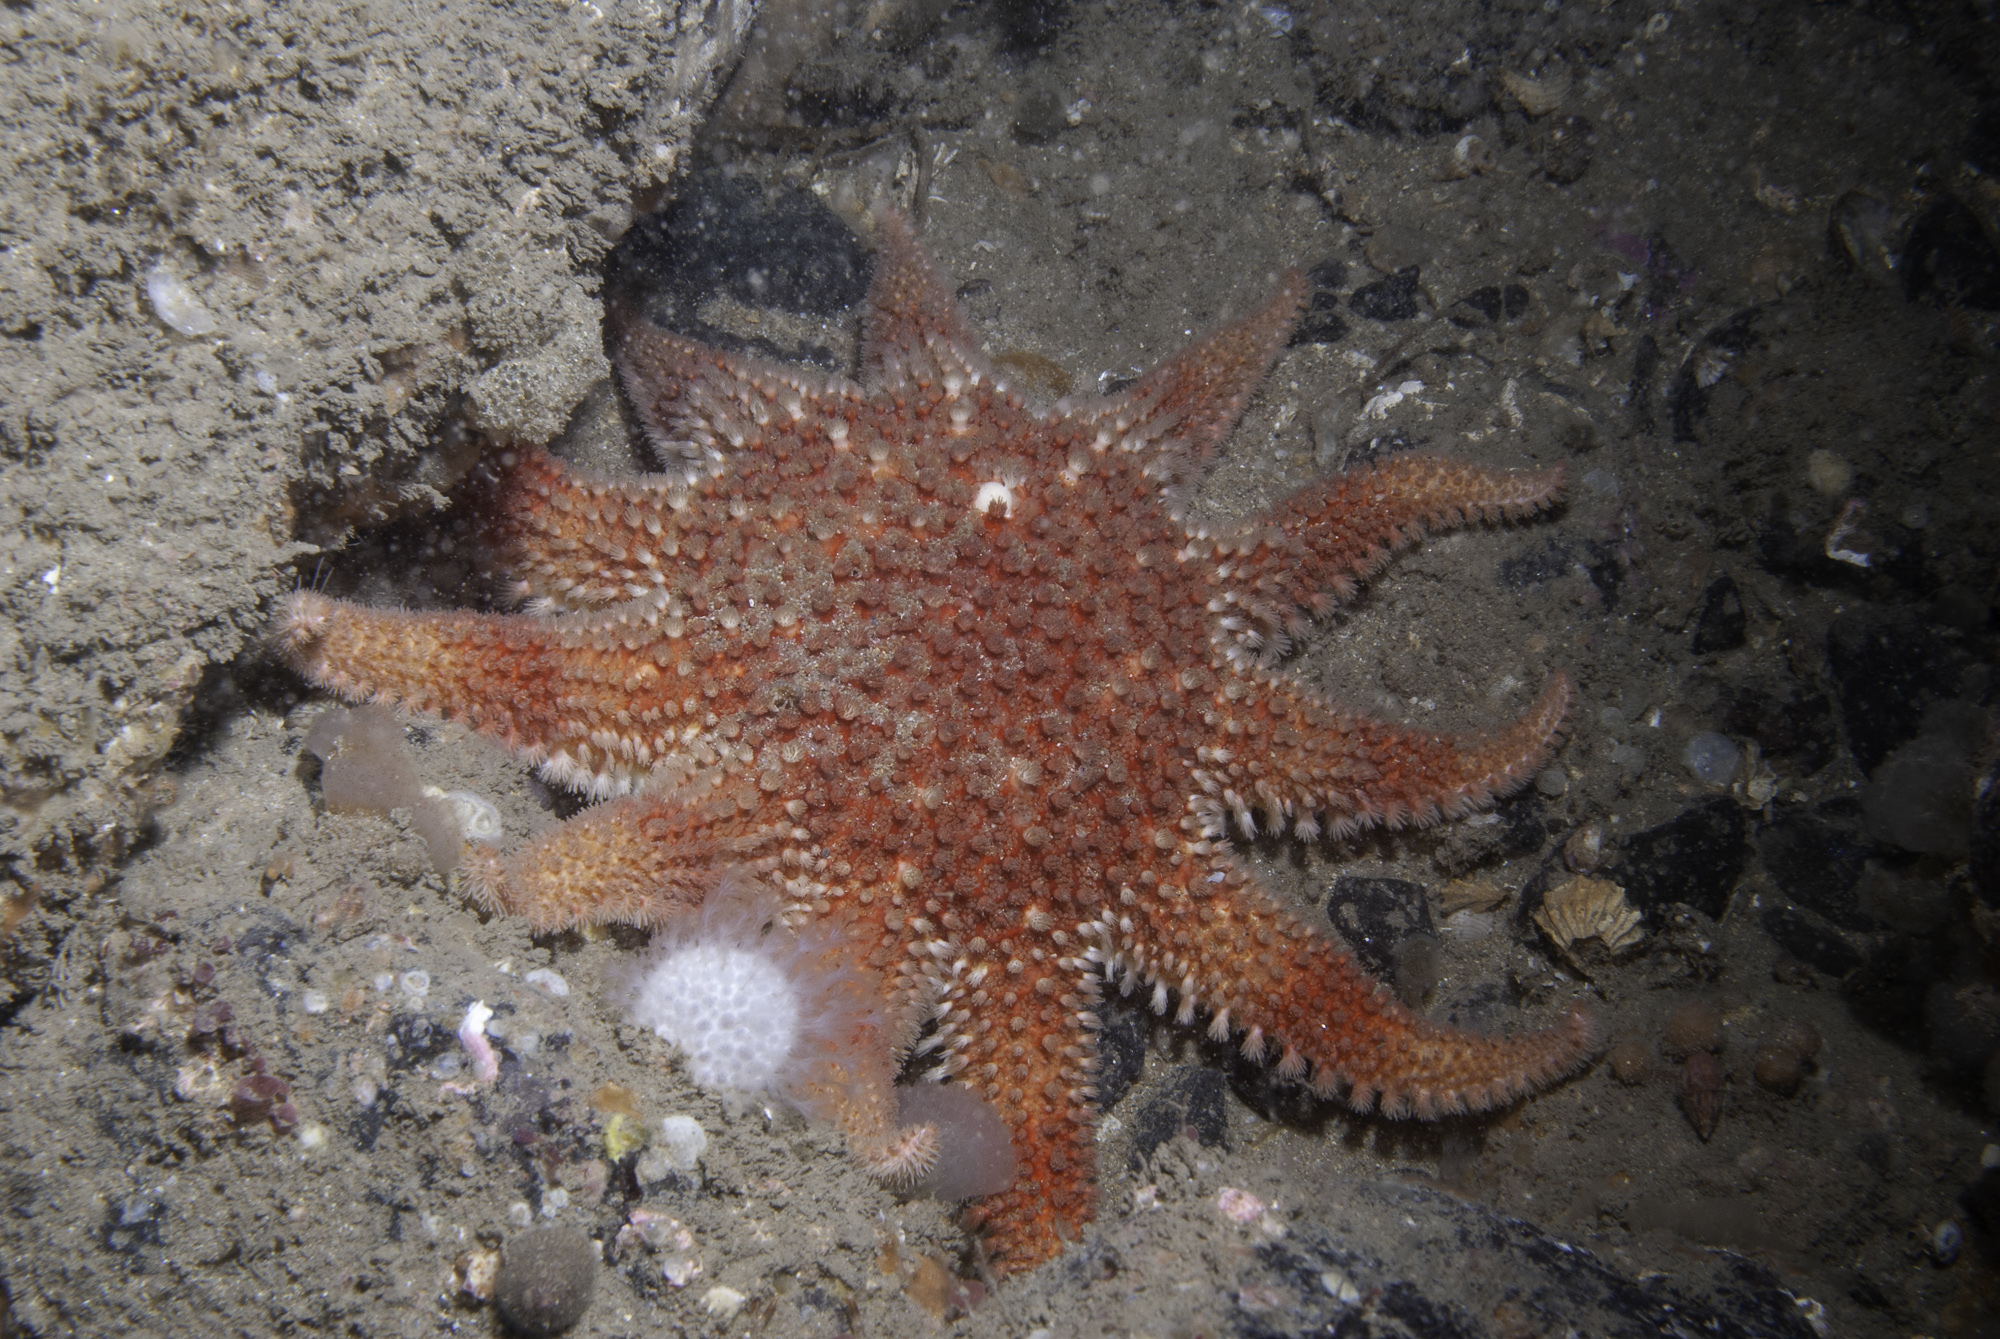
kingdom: Animalia
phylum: Echinodermata
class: Asteroidea
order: Valvatida
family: Solasteridae
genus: Crossaster
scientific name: Crossaster papposus
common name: Common sun star
